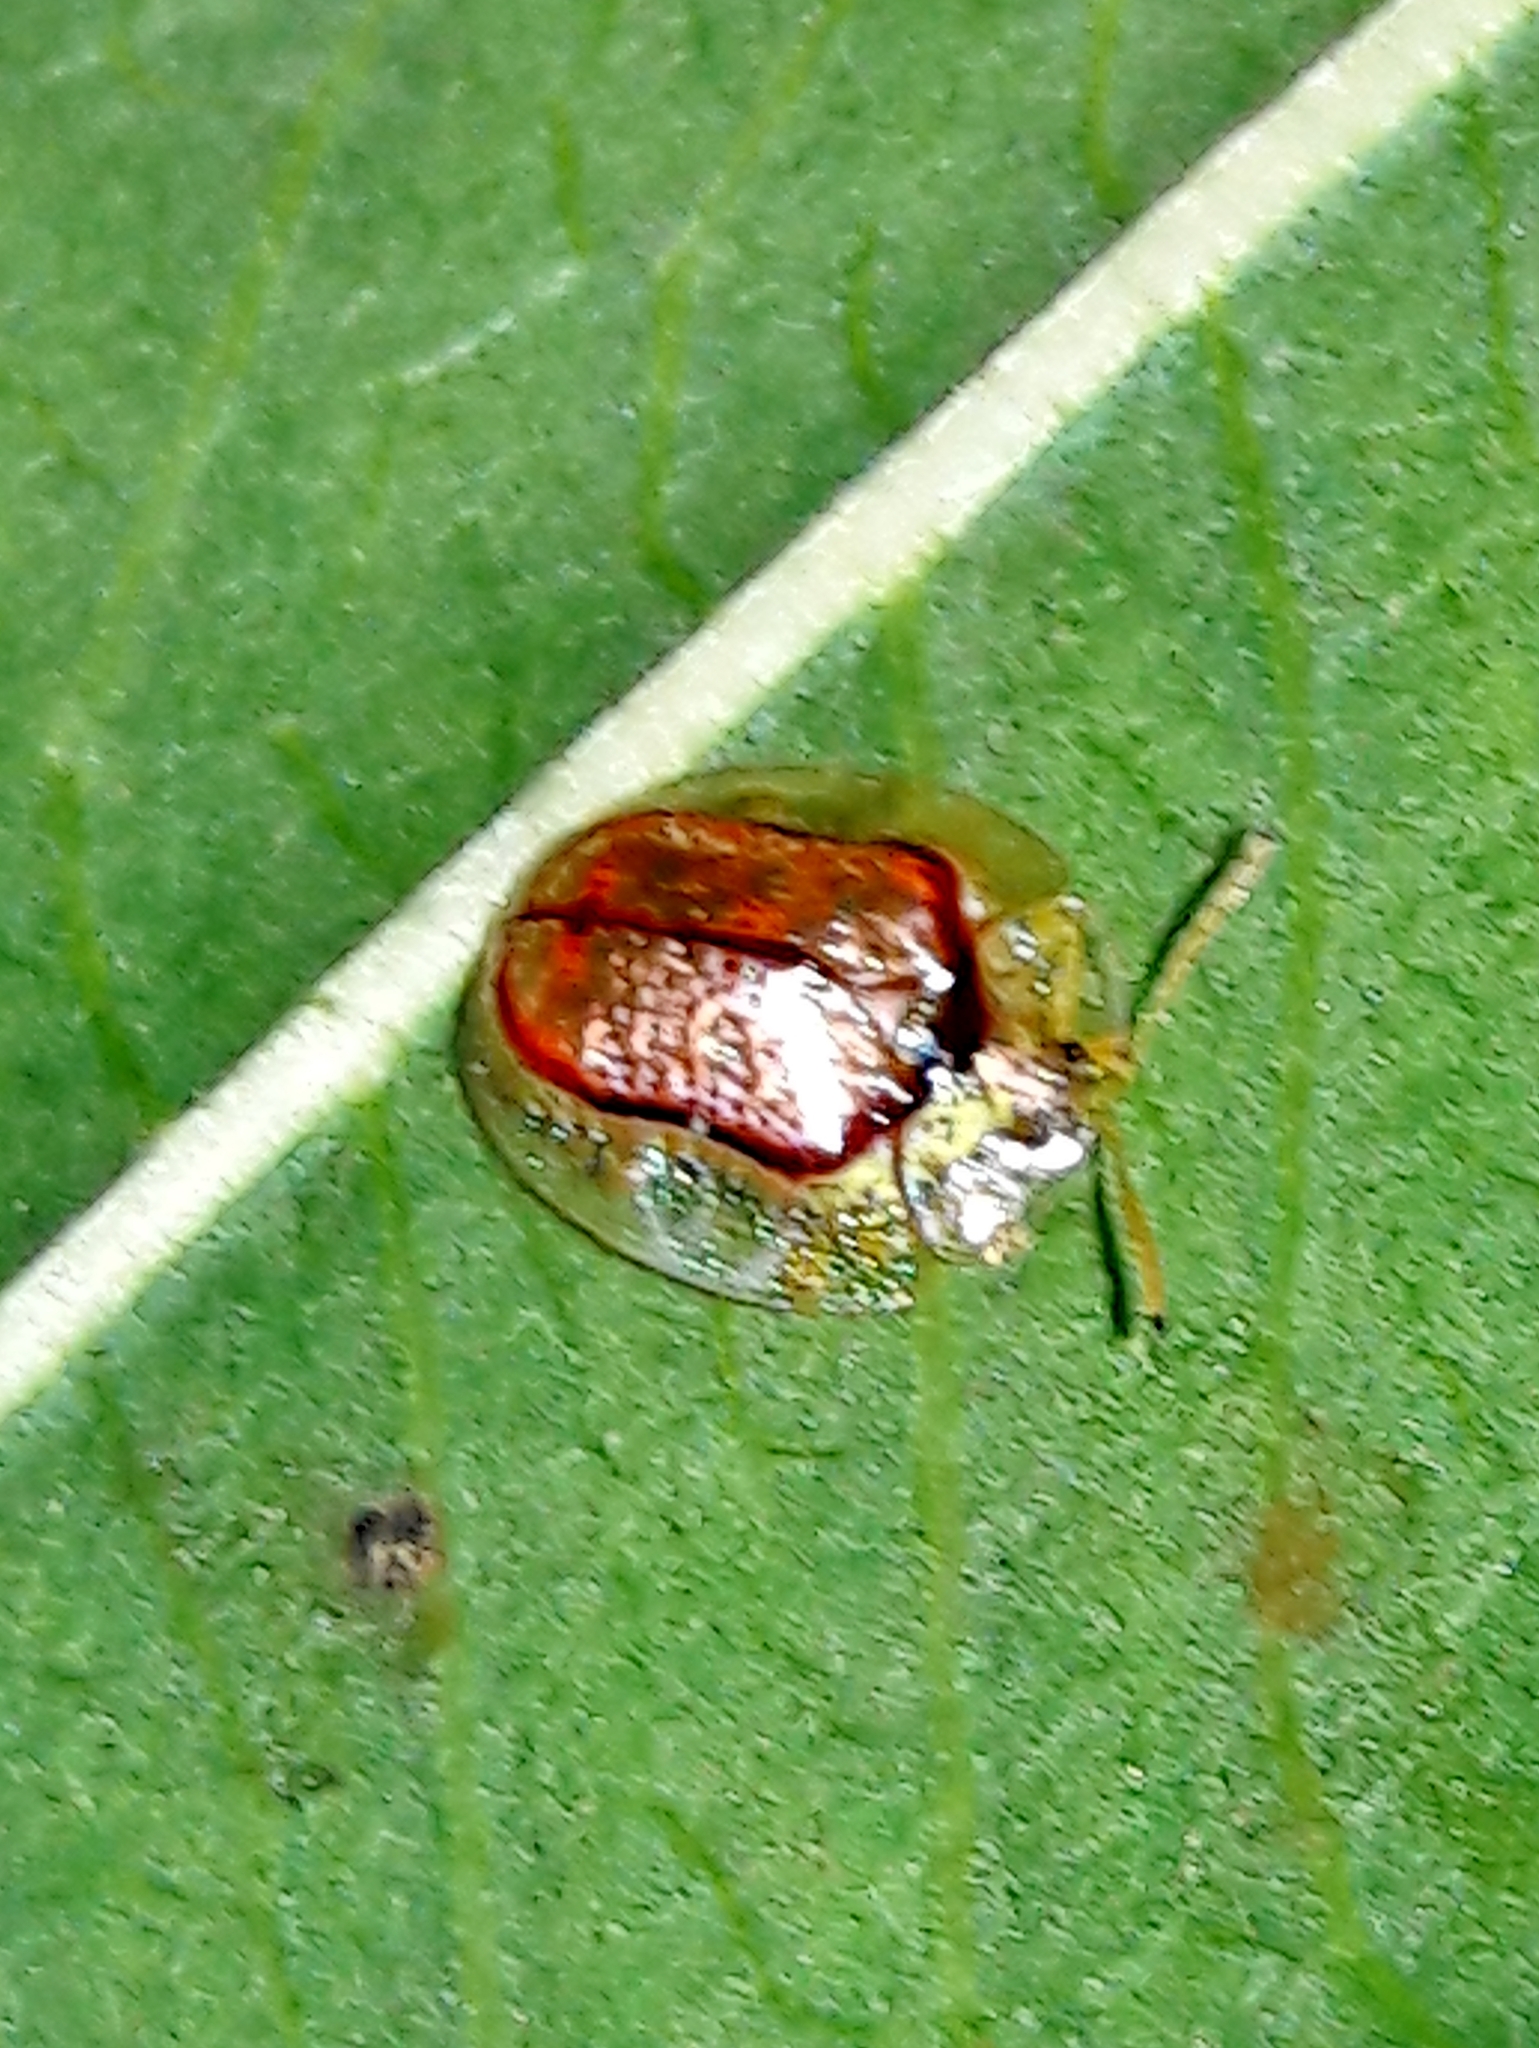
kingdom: Animalia
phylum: Arthropoda
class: Insecta
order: Coleoptera
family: Chrysomelidae
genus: Microctenochira
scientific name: Microctenochira quadrata
